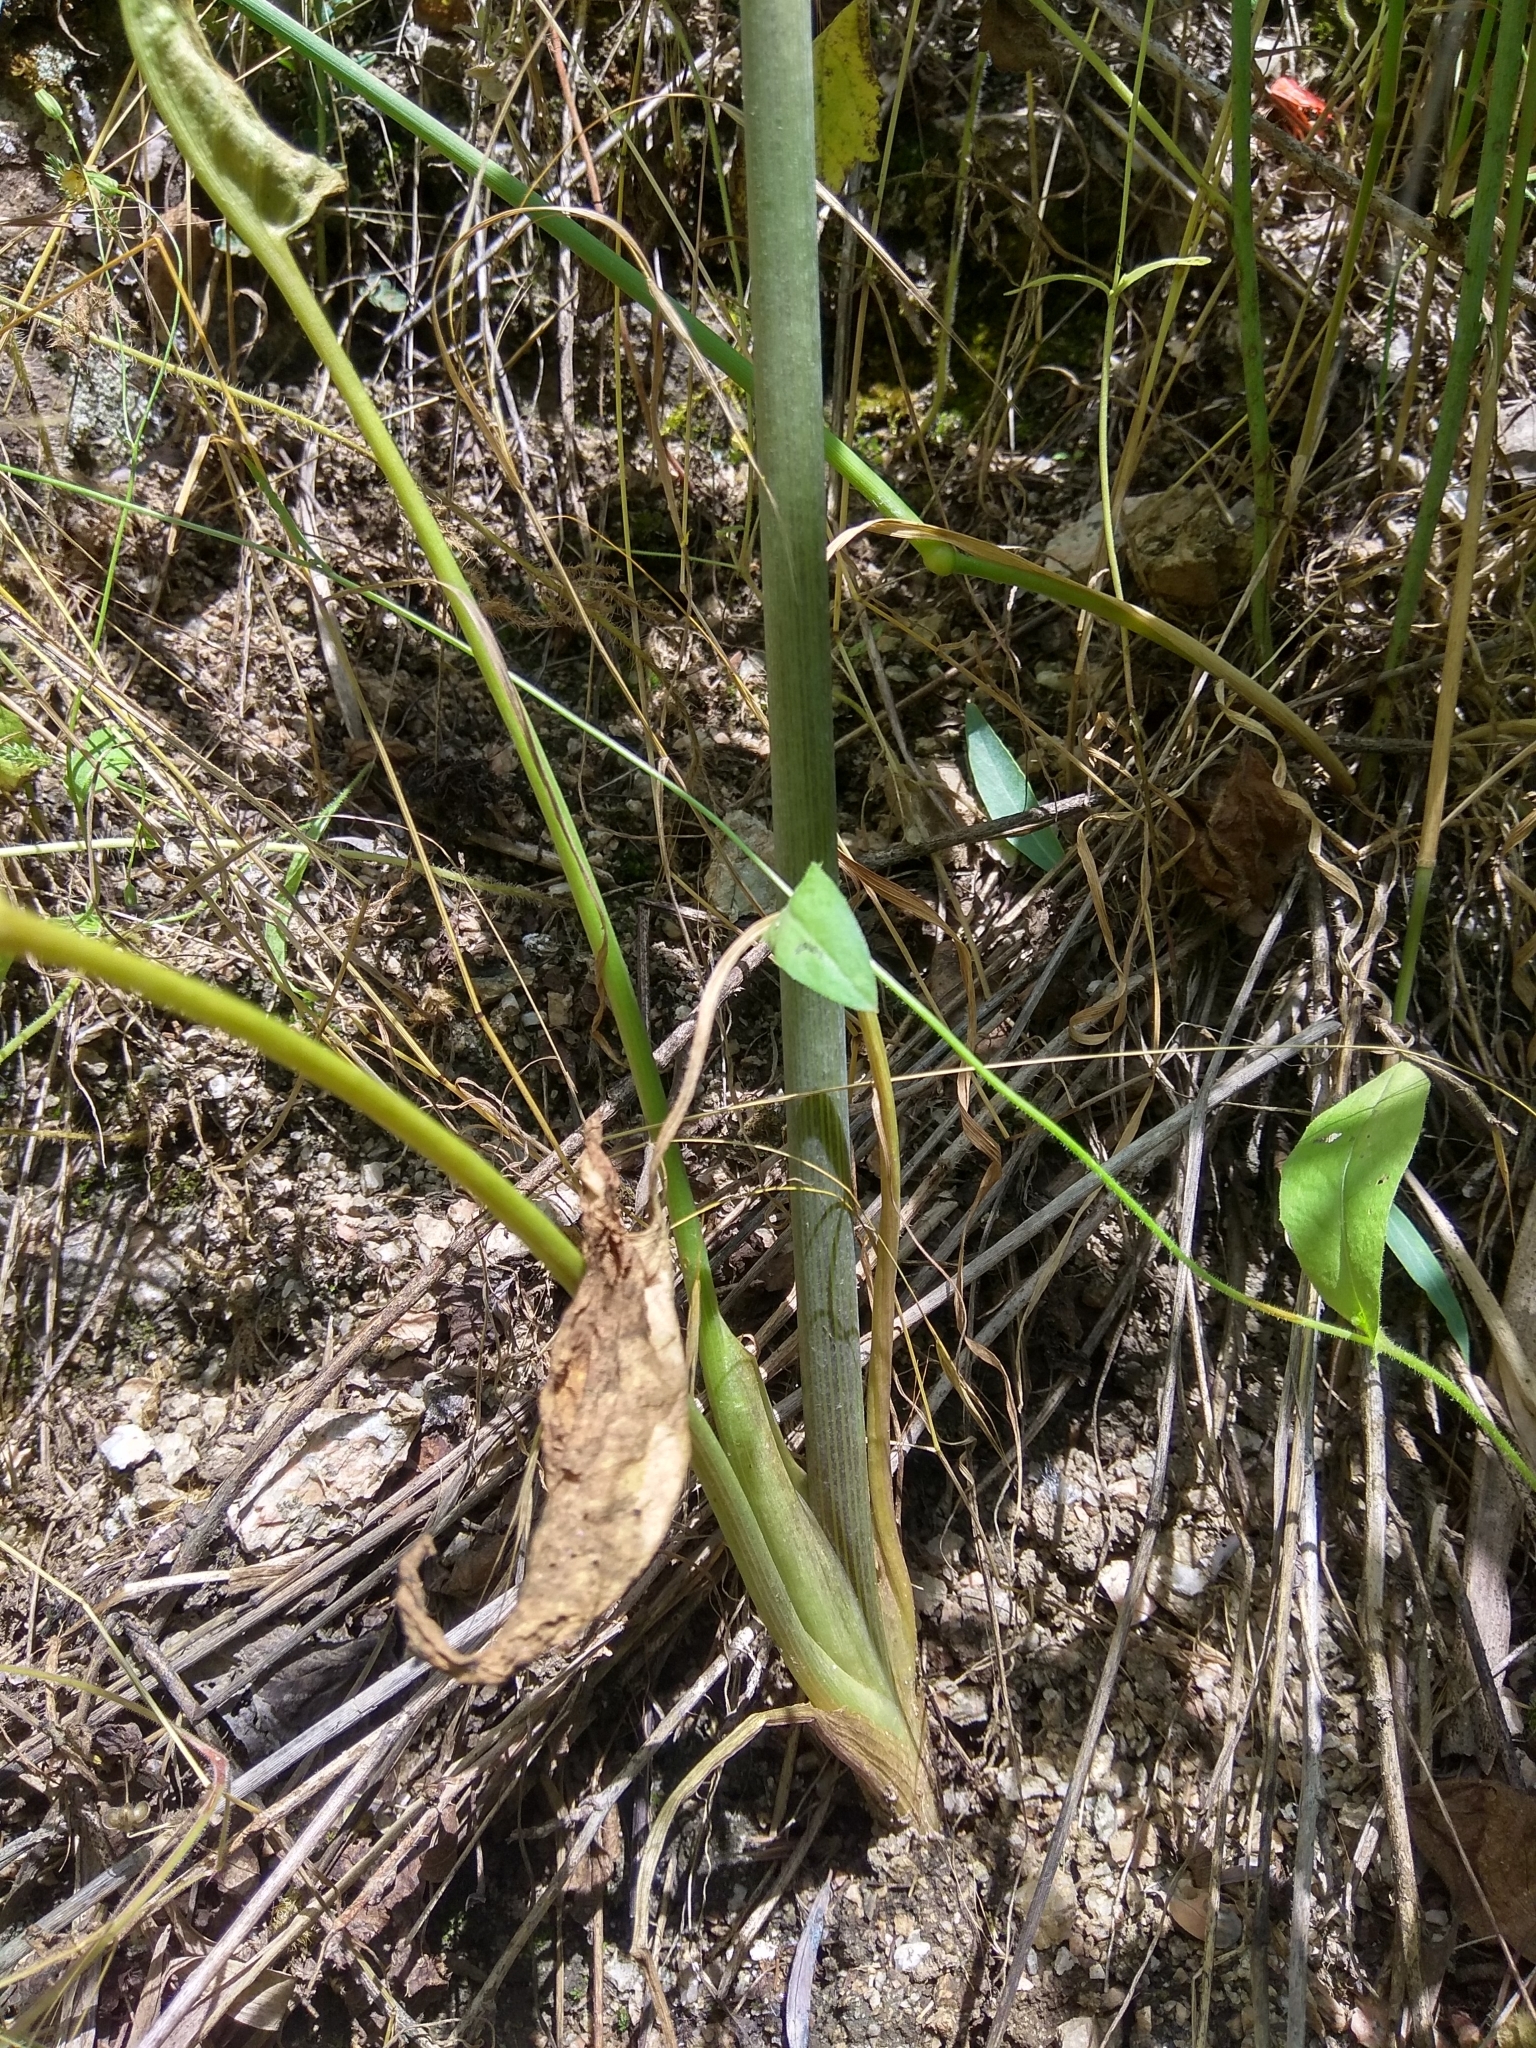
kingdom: Plantae
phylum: Tracheophyta
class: Liliopsida
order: Alismatales
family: Araceae
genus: Arum
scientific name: Arum korolkowii
